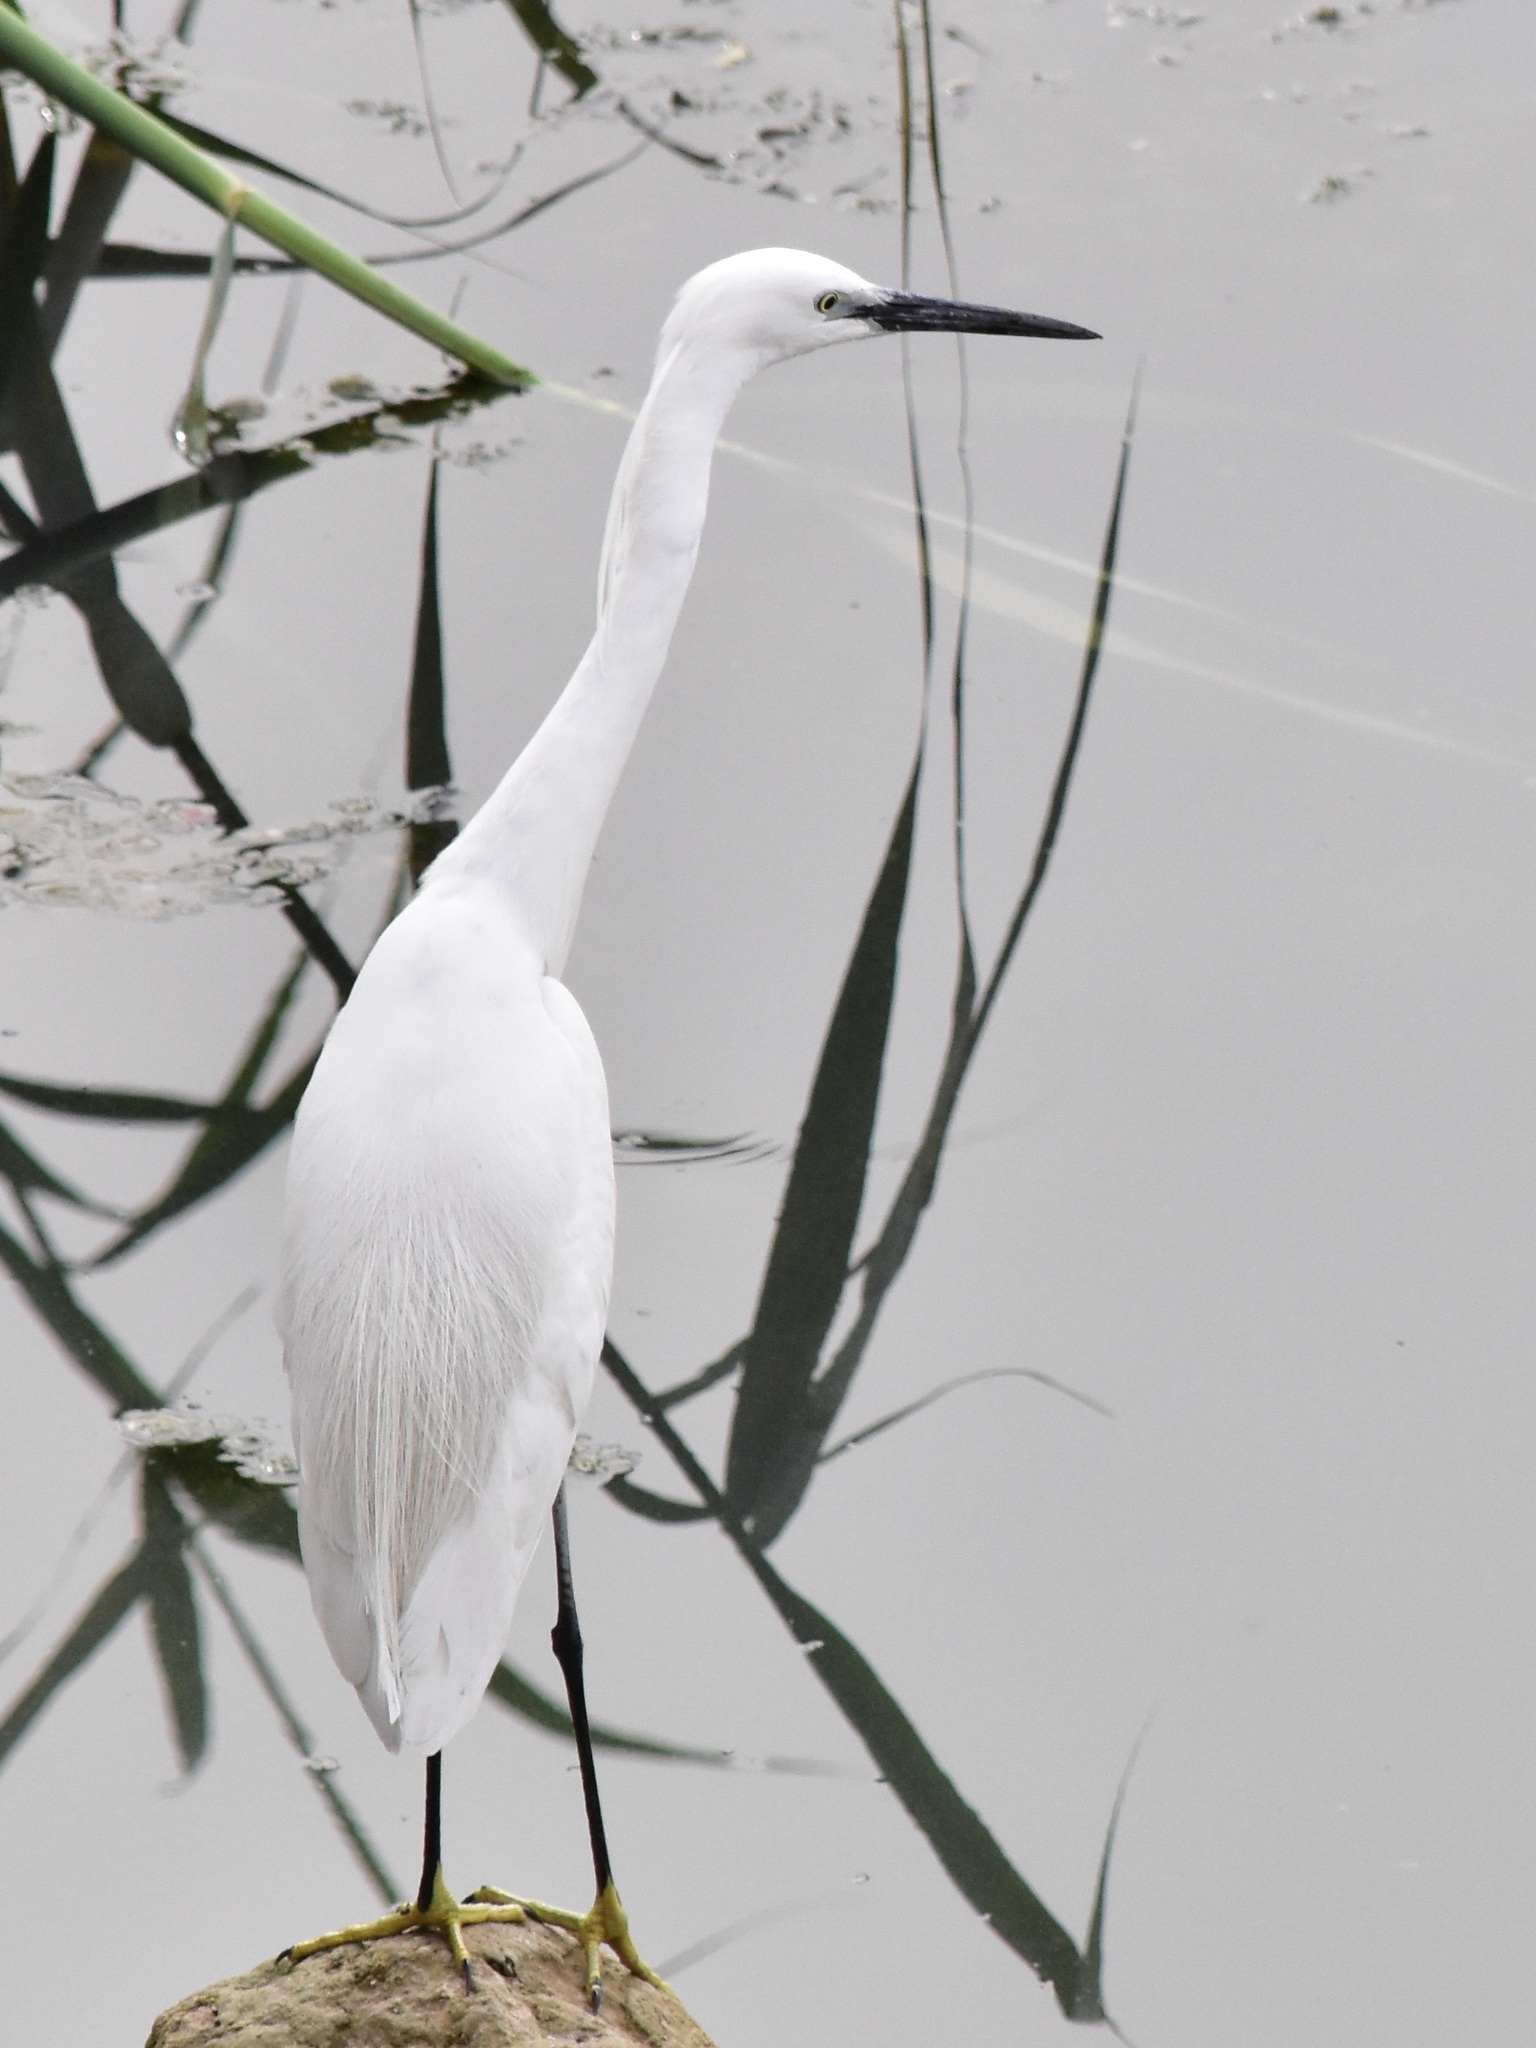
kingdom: Animalia
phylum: Chordata
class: Aves
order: Pelecaniformes
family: Ardeidae
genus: Egretta
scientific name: Egretta garzetta
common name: Little egret
